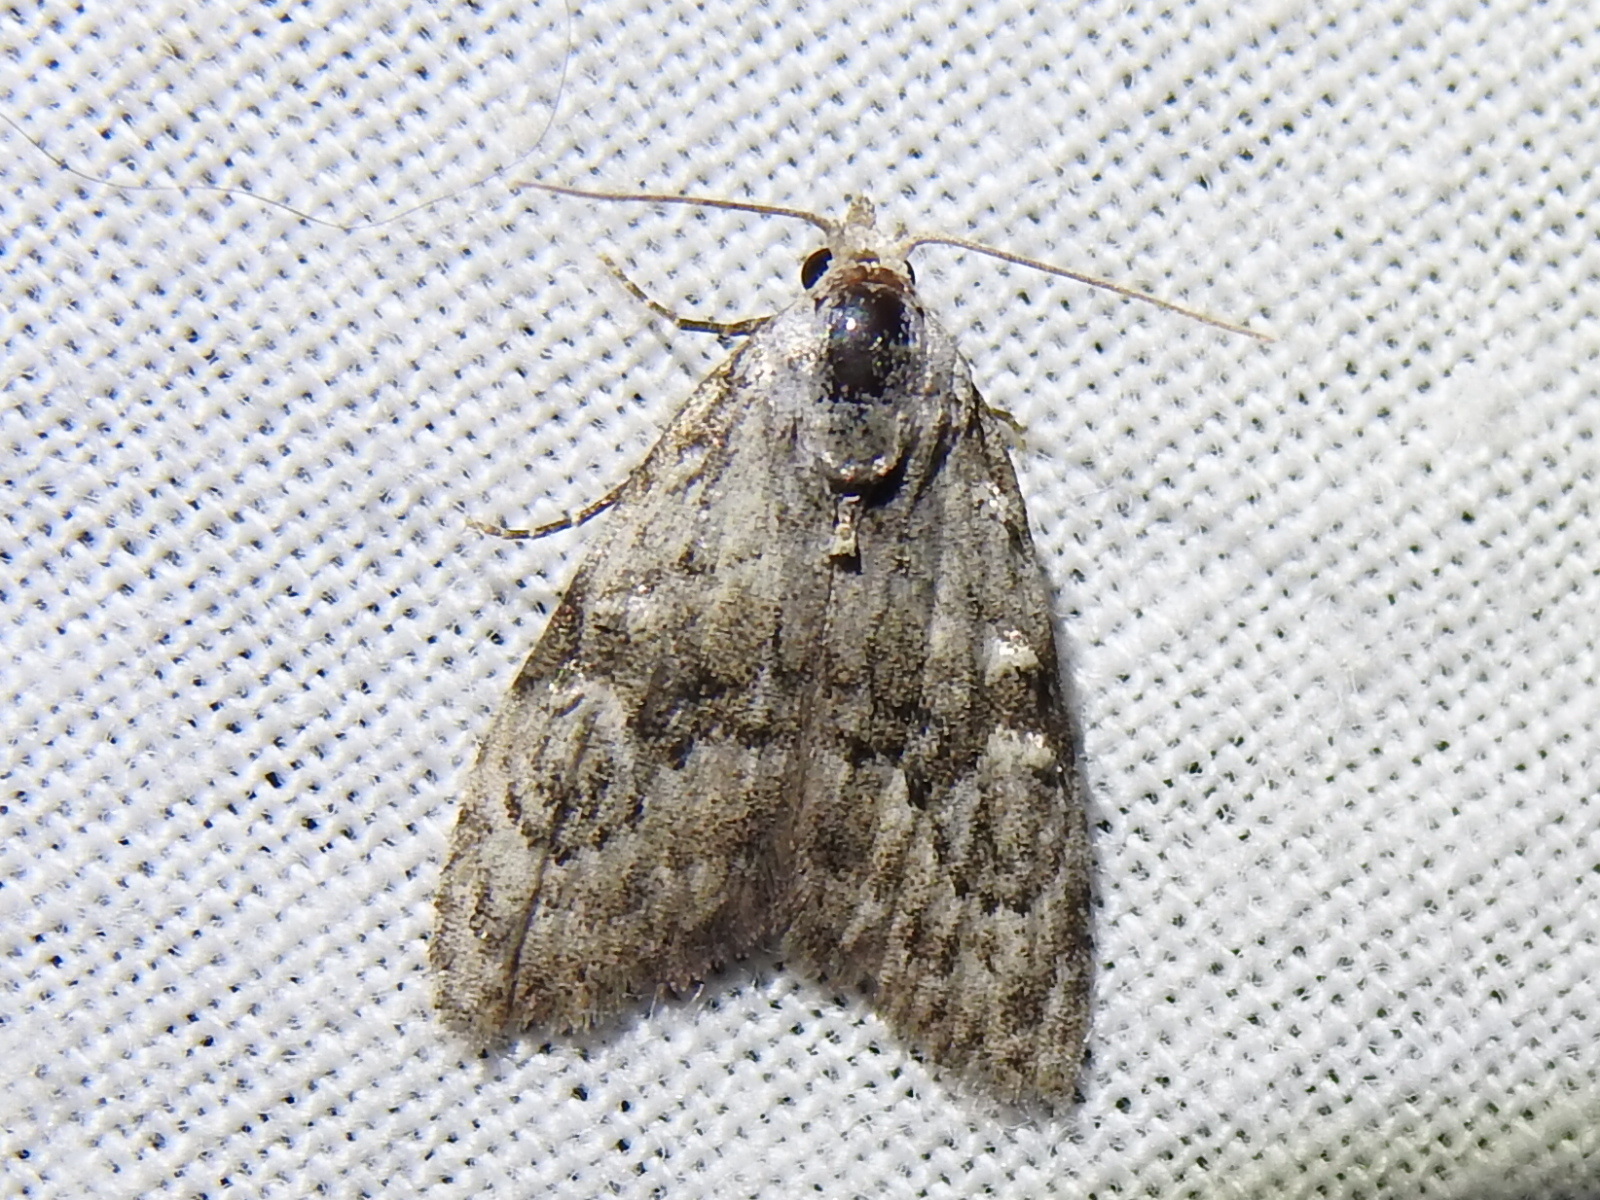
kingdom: Animalia
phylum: Arthropoda
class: Insecta
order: Lepidoptera
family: Nolidae
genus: Meganola
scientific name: Meganola minuscula
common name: Confused meganola moth
